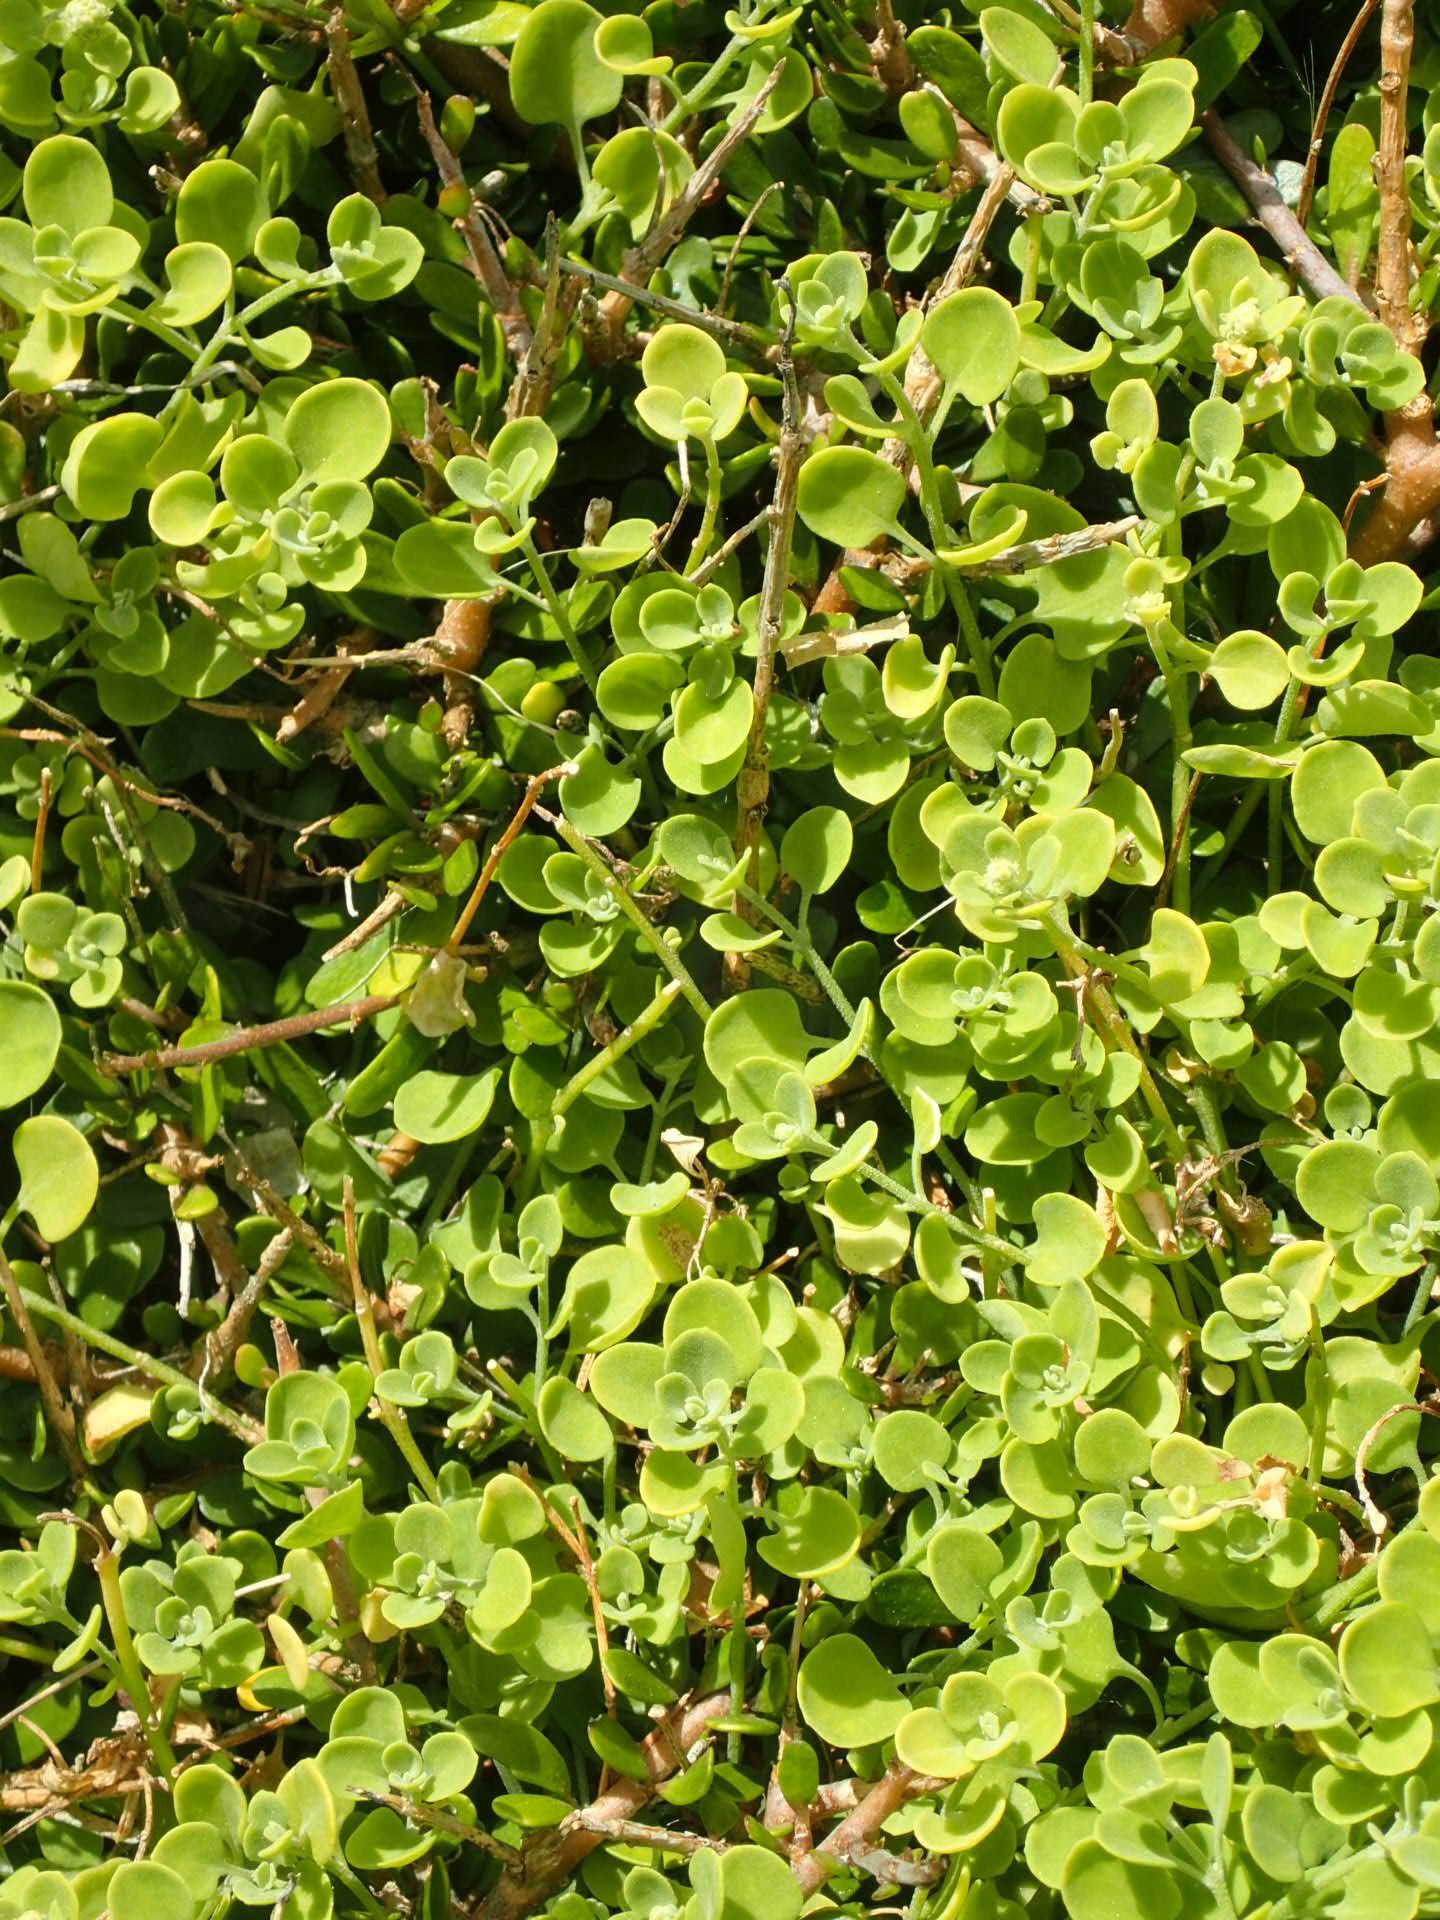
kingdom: Plantae
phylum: Tracheophyta
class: Magnoliopsida
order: Caryophyllales
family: Amaranthaceae
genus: Chenopodium
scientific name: Chenopodium allanii
